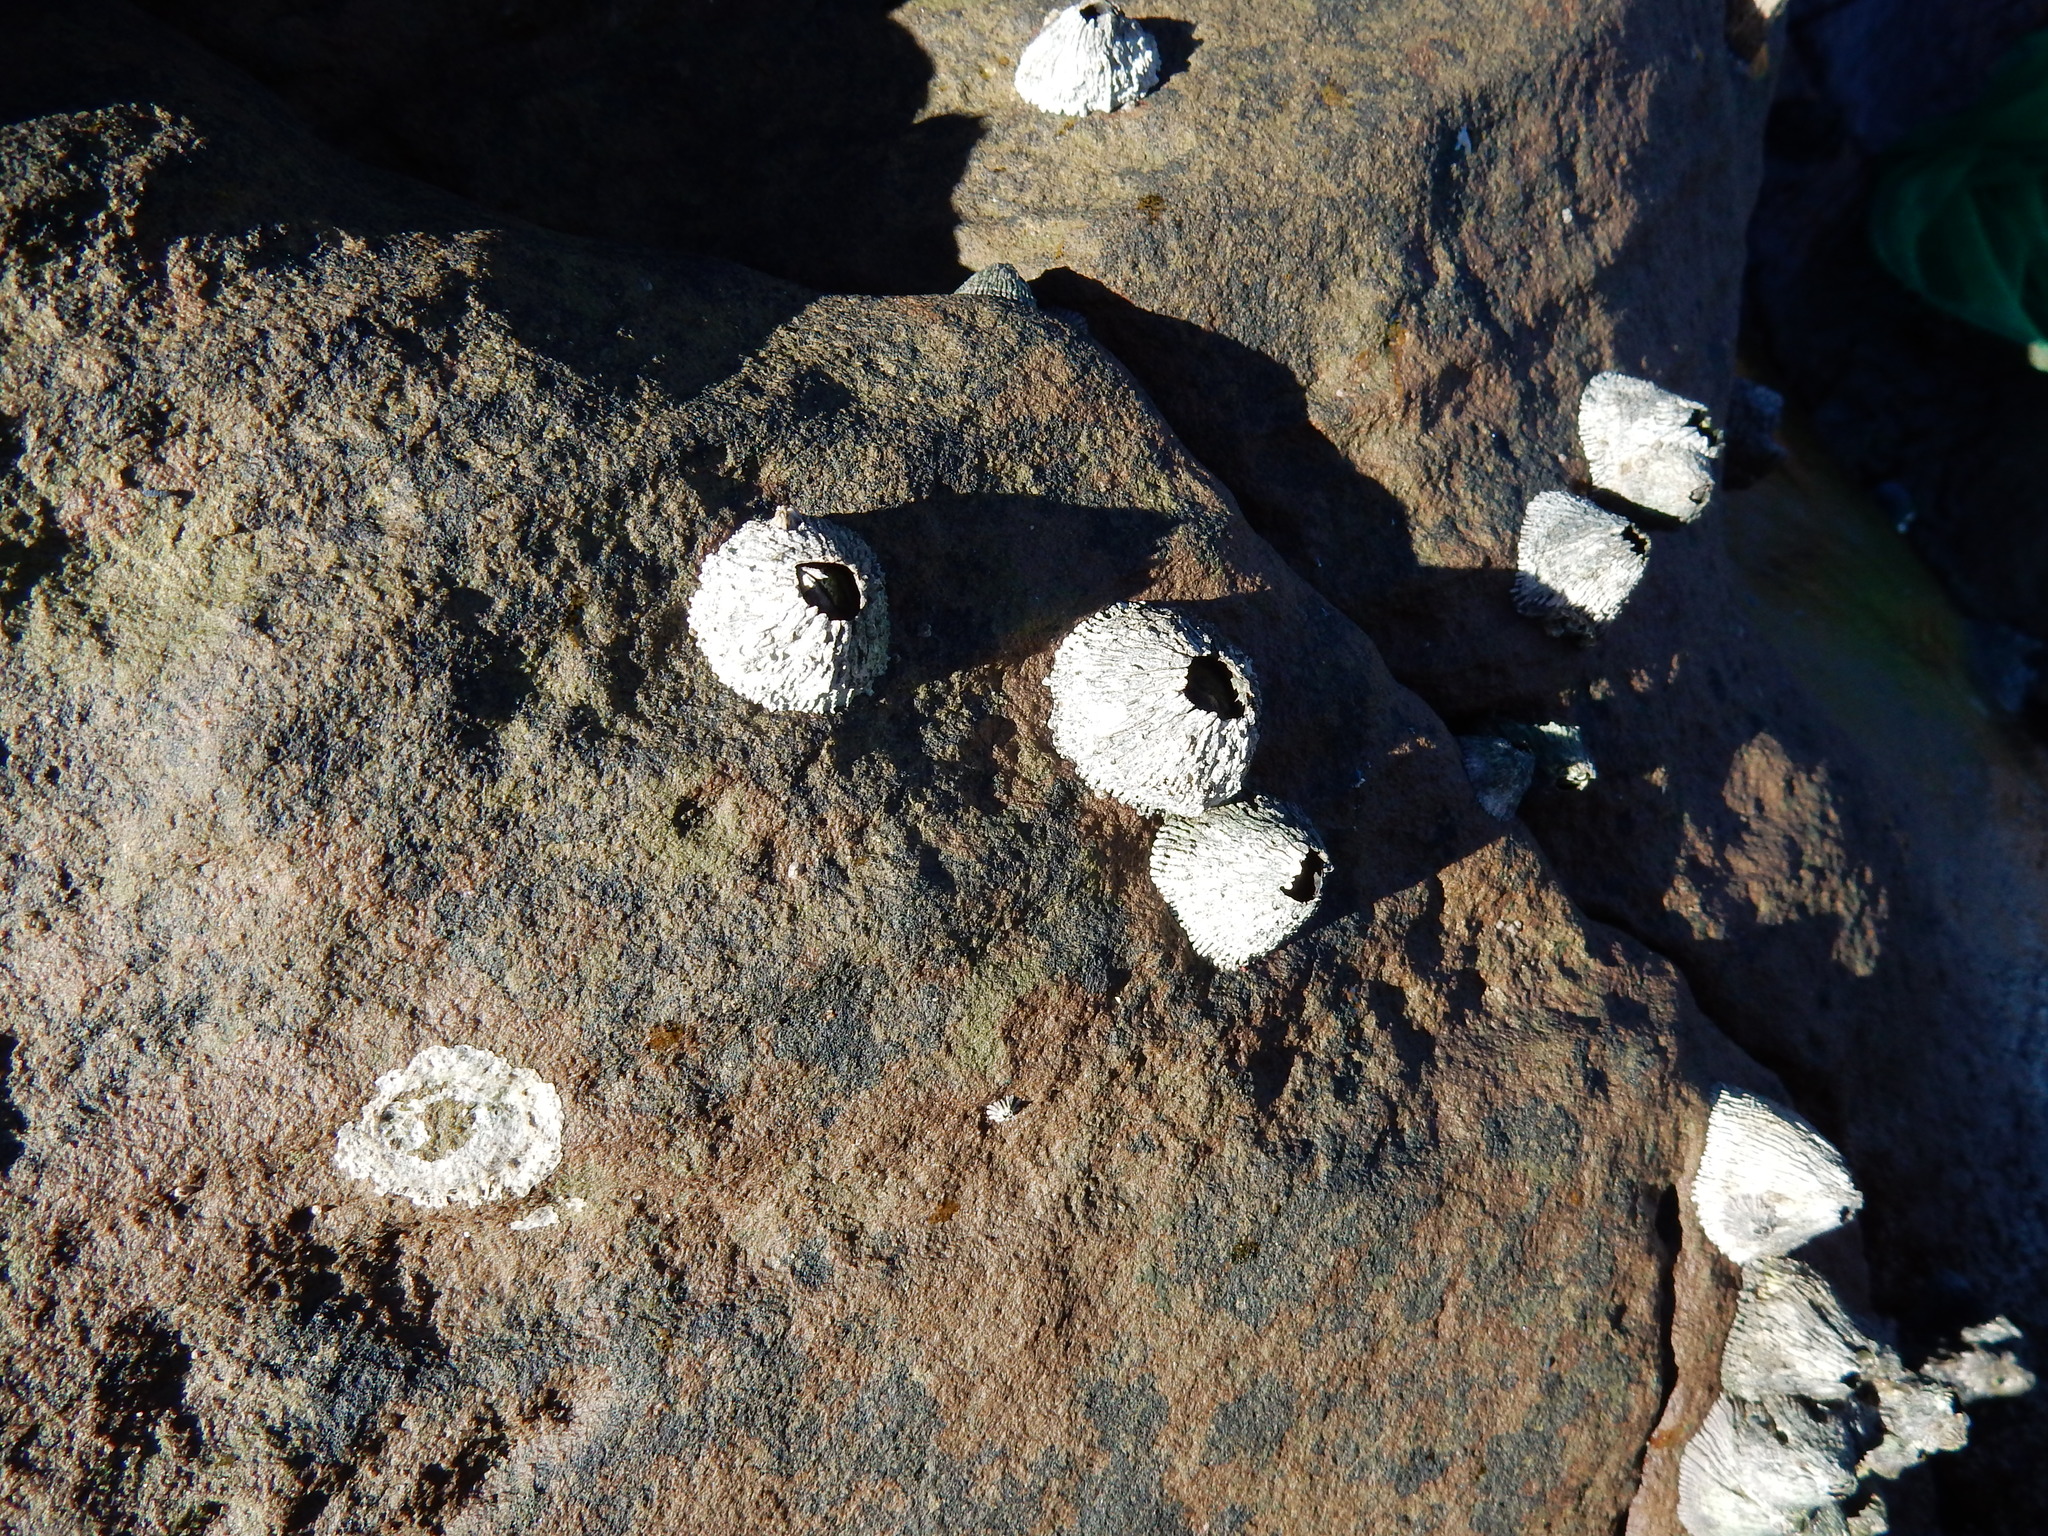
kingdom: Animalia
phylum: Arthropoda
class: Maxillopoda
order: Sessilia
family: Tetraclitidae
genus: Tetraclita
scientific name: Tetraclita serrata
